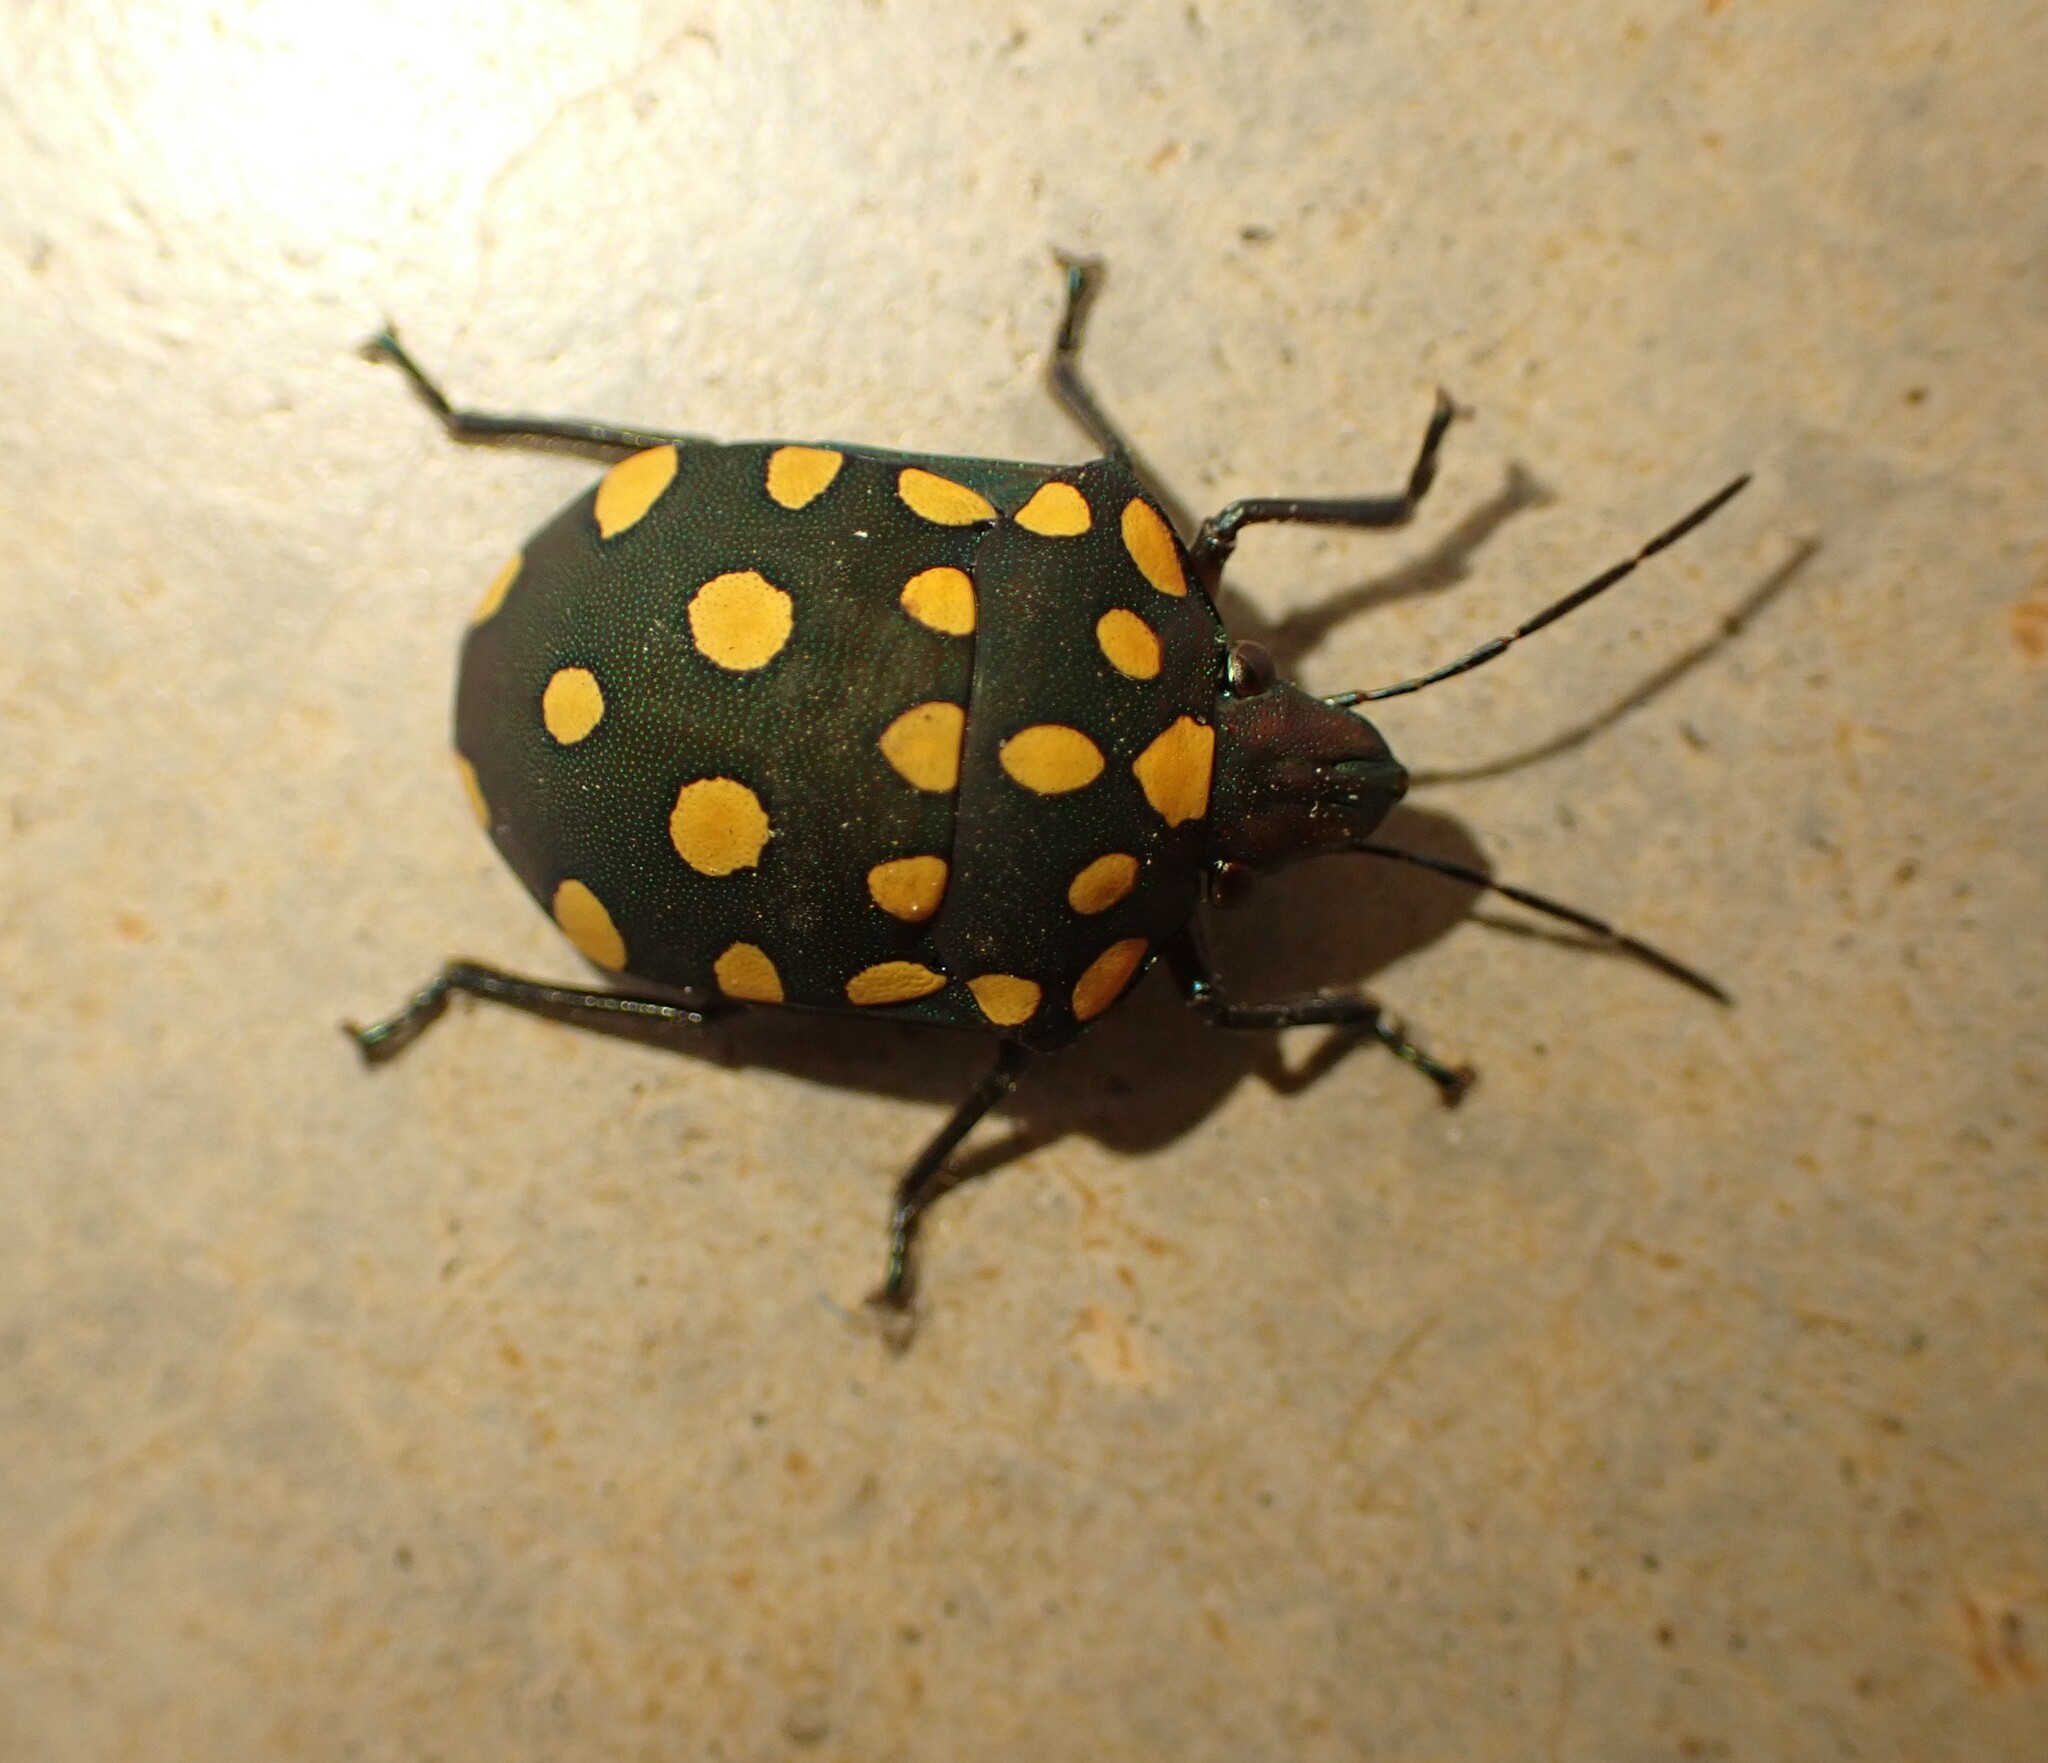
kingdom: Animalia
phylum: Arthropoda
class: Insecta
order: Hemiptera
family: Scutelleridae
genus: Pachycoris
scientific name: Pachycoris torridus
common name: Torrid jewel bug
